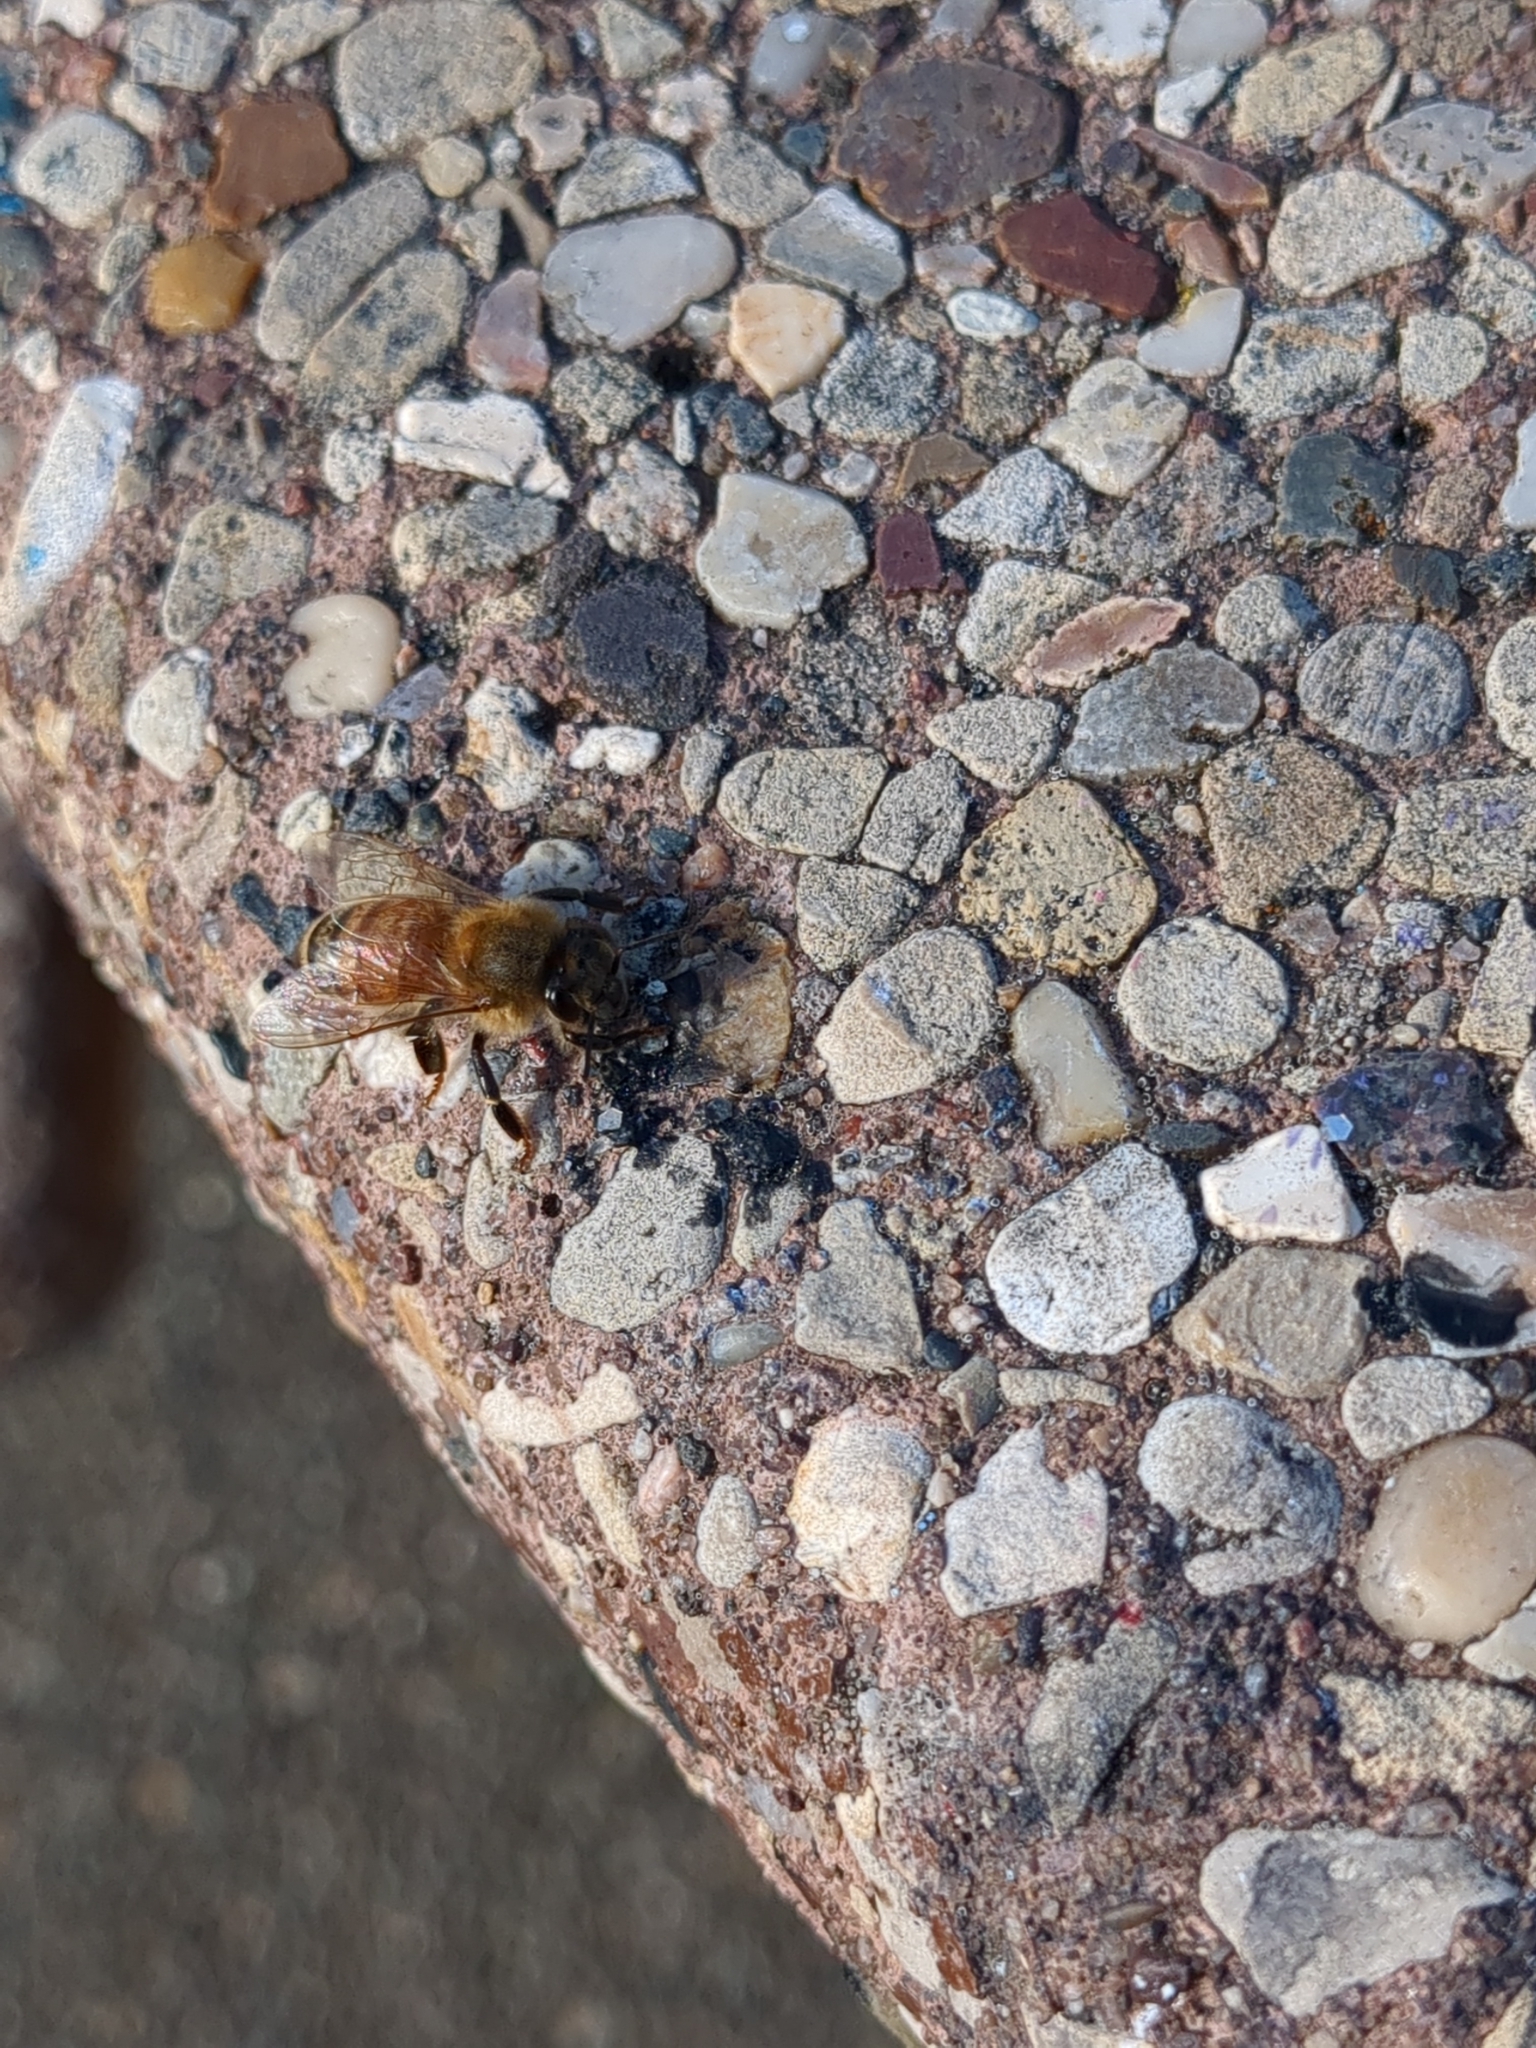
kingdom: Animalia
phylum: Arthropoda
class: Insecta
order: Hymenoptera
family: Apidae
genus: Apis
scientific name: Apis mellifera
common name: Honey bee
